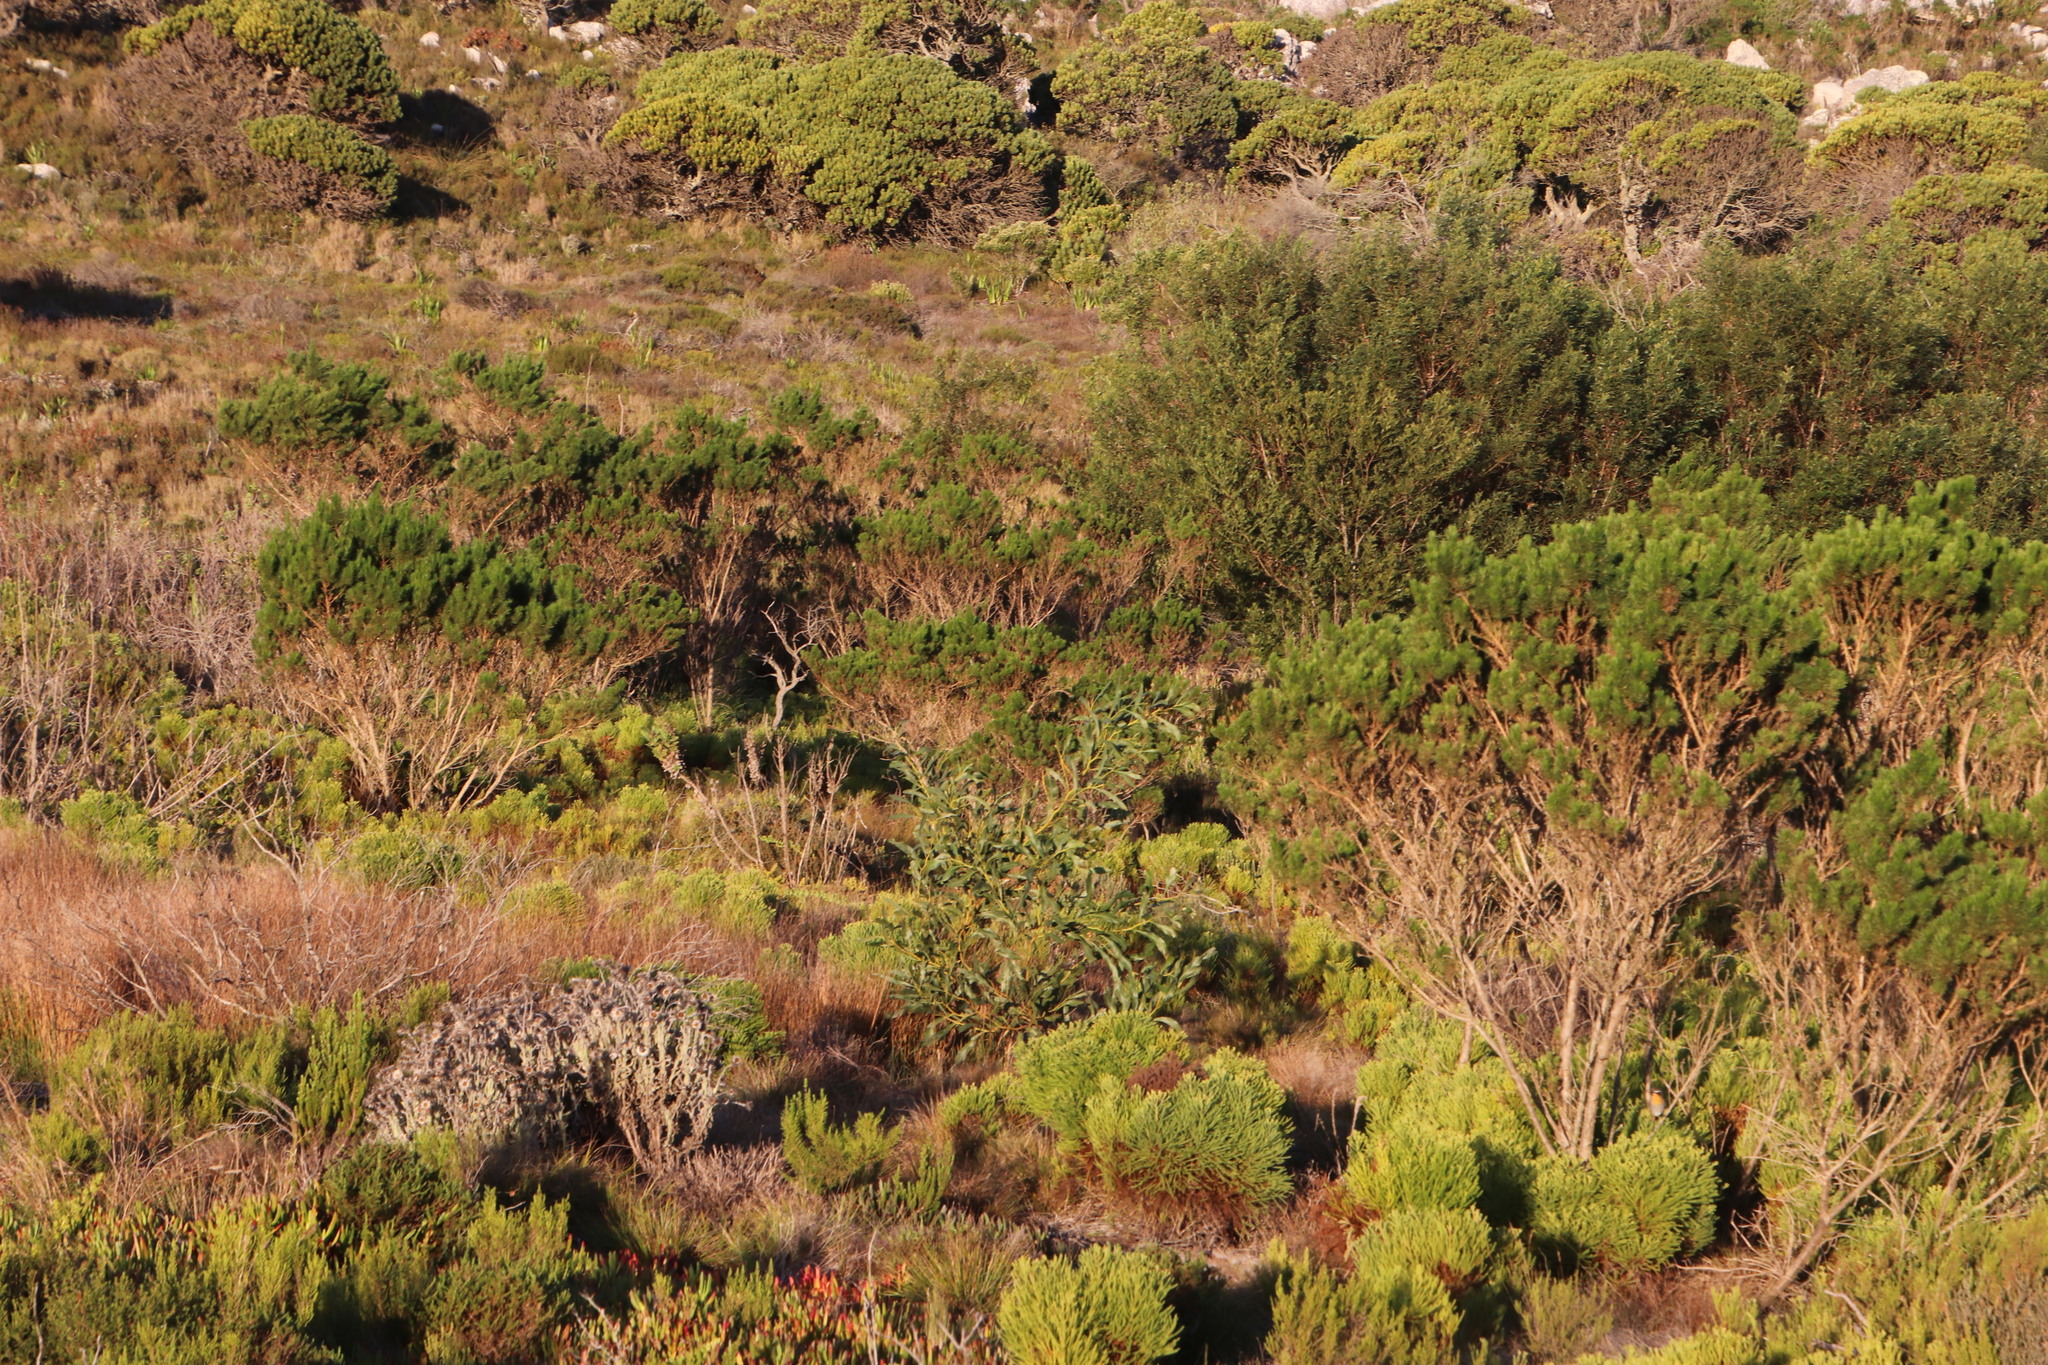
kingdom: Plantae
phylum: Tracheophyta
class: Magnoliopsida
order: Fabales
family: Fabaceae
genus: Acacia
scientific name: Acacia saligna
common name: Orange wattle
